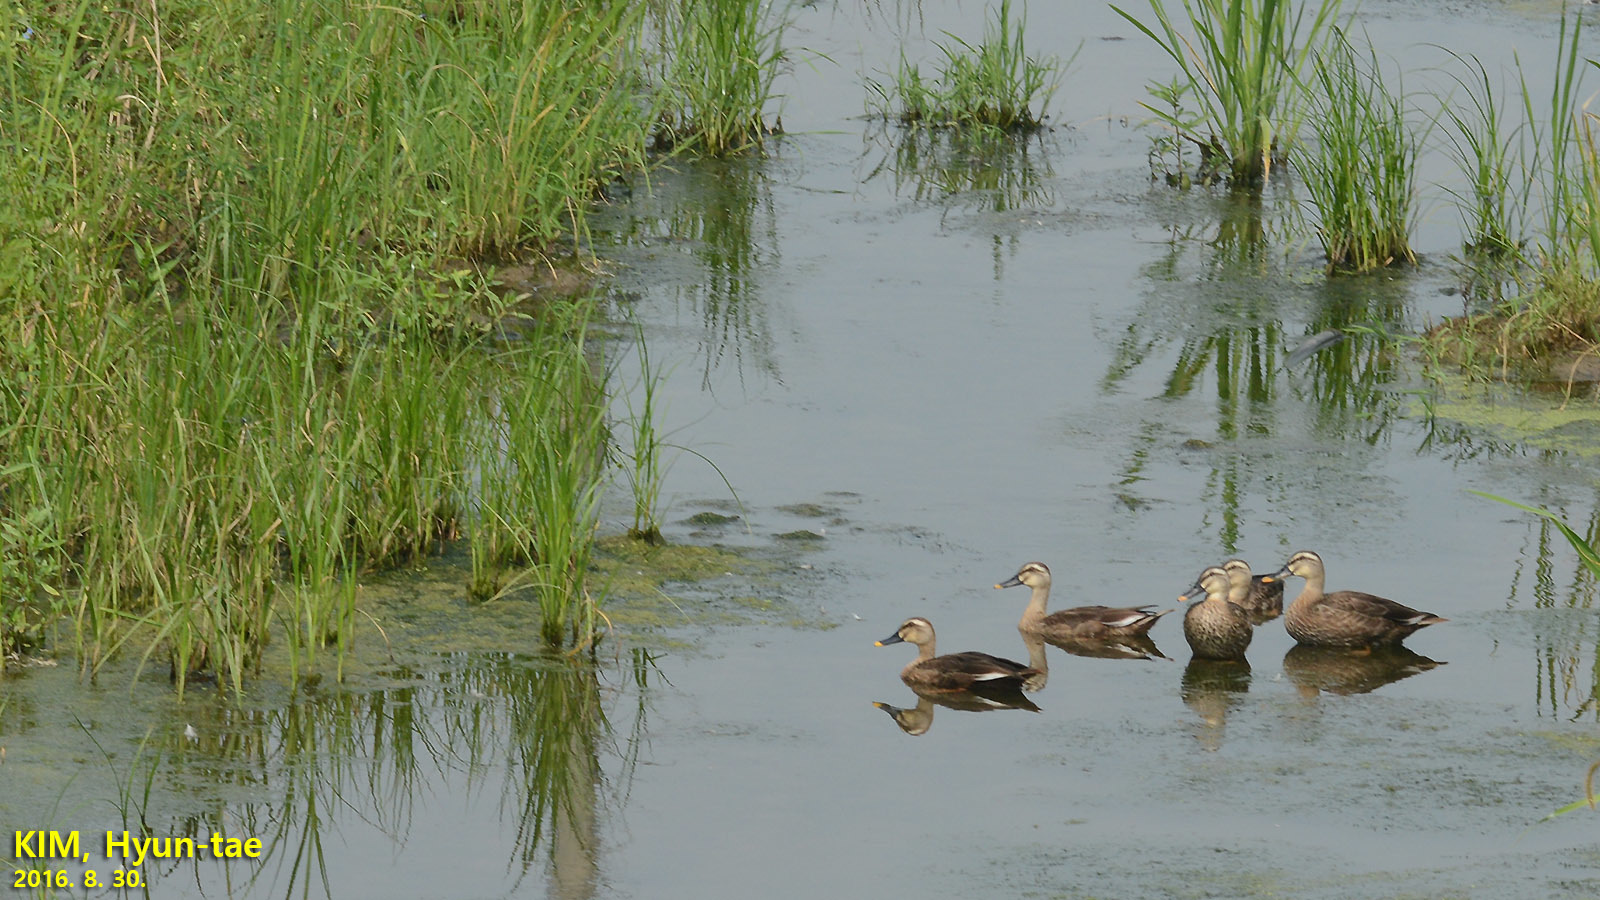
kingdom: Animalia
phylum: Chordata
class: Aves
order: Anseriformes
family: Anatidae
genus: Anas
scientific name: Anas zonorhyncha
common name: Eastern spot-billed duck
